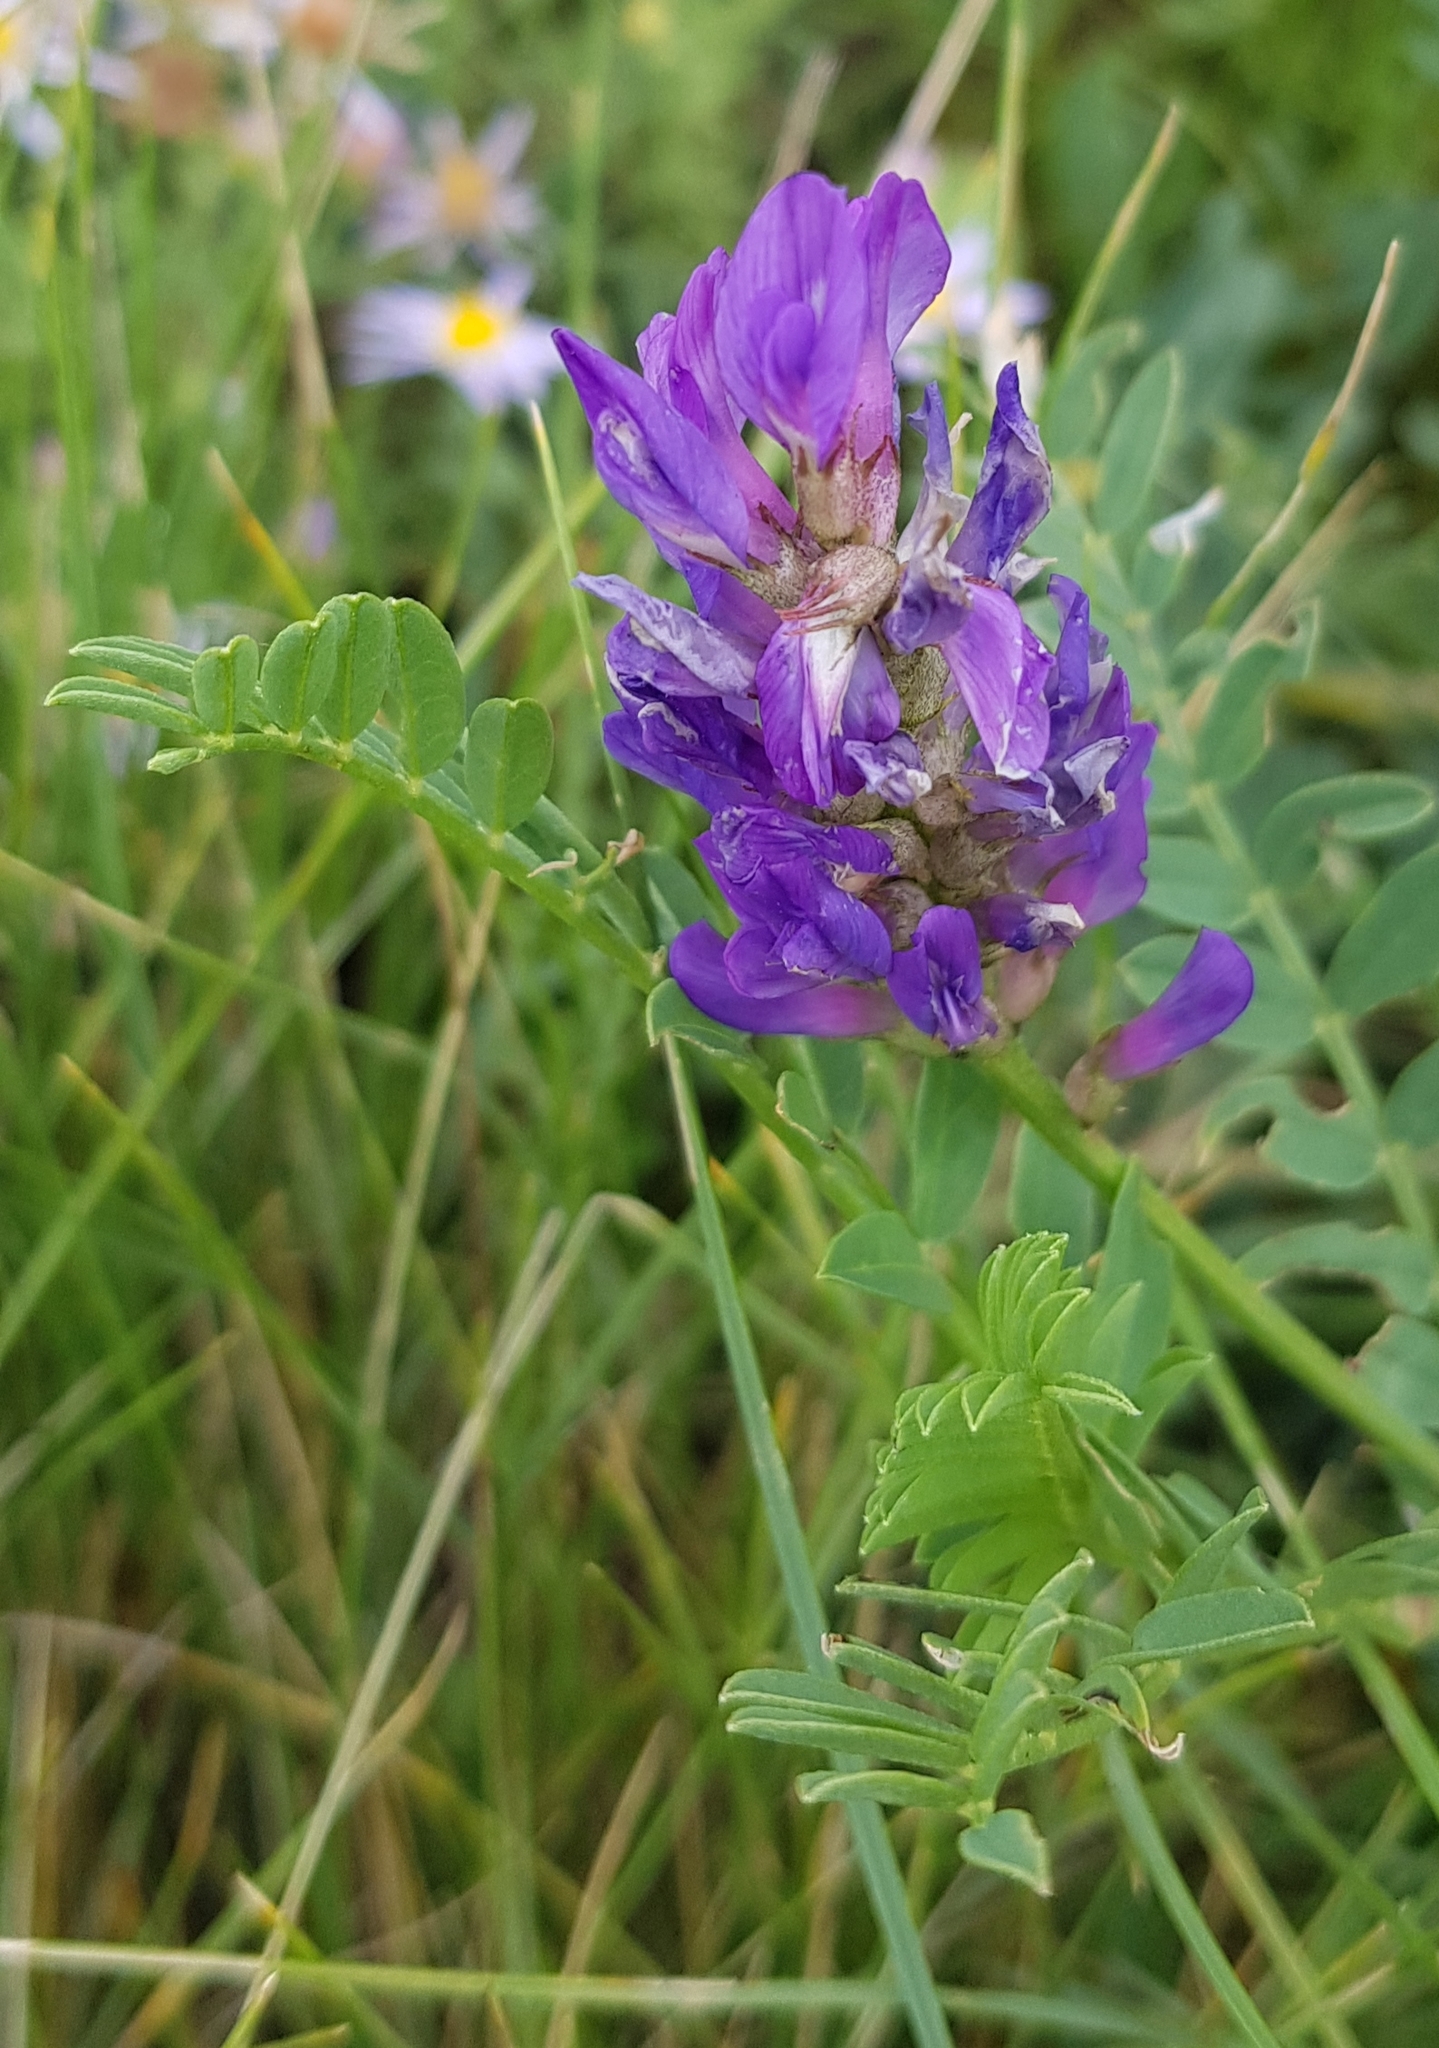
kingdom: Plantae
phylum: Tracheophyta
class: Magnoliopsida
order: Fabales
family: Fabaceae
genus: Astragalus
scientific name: Astragalus laxmannii
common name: Laxmann's milk-vetch
